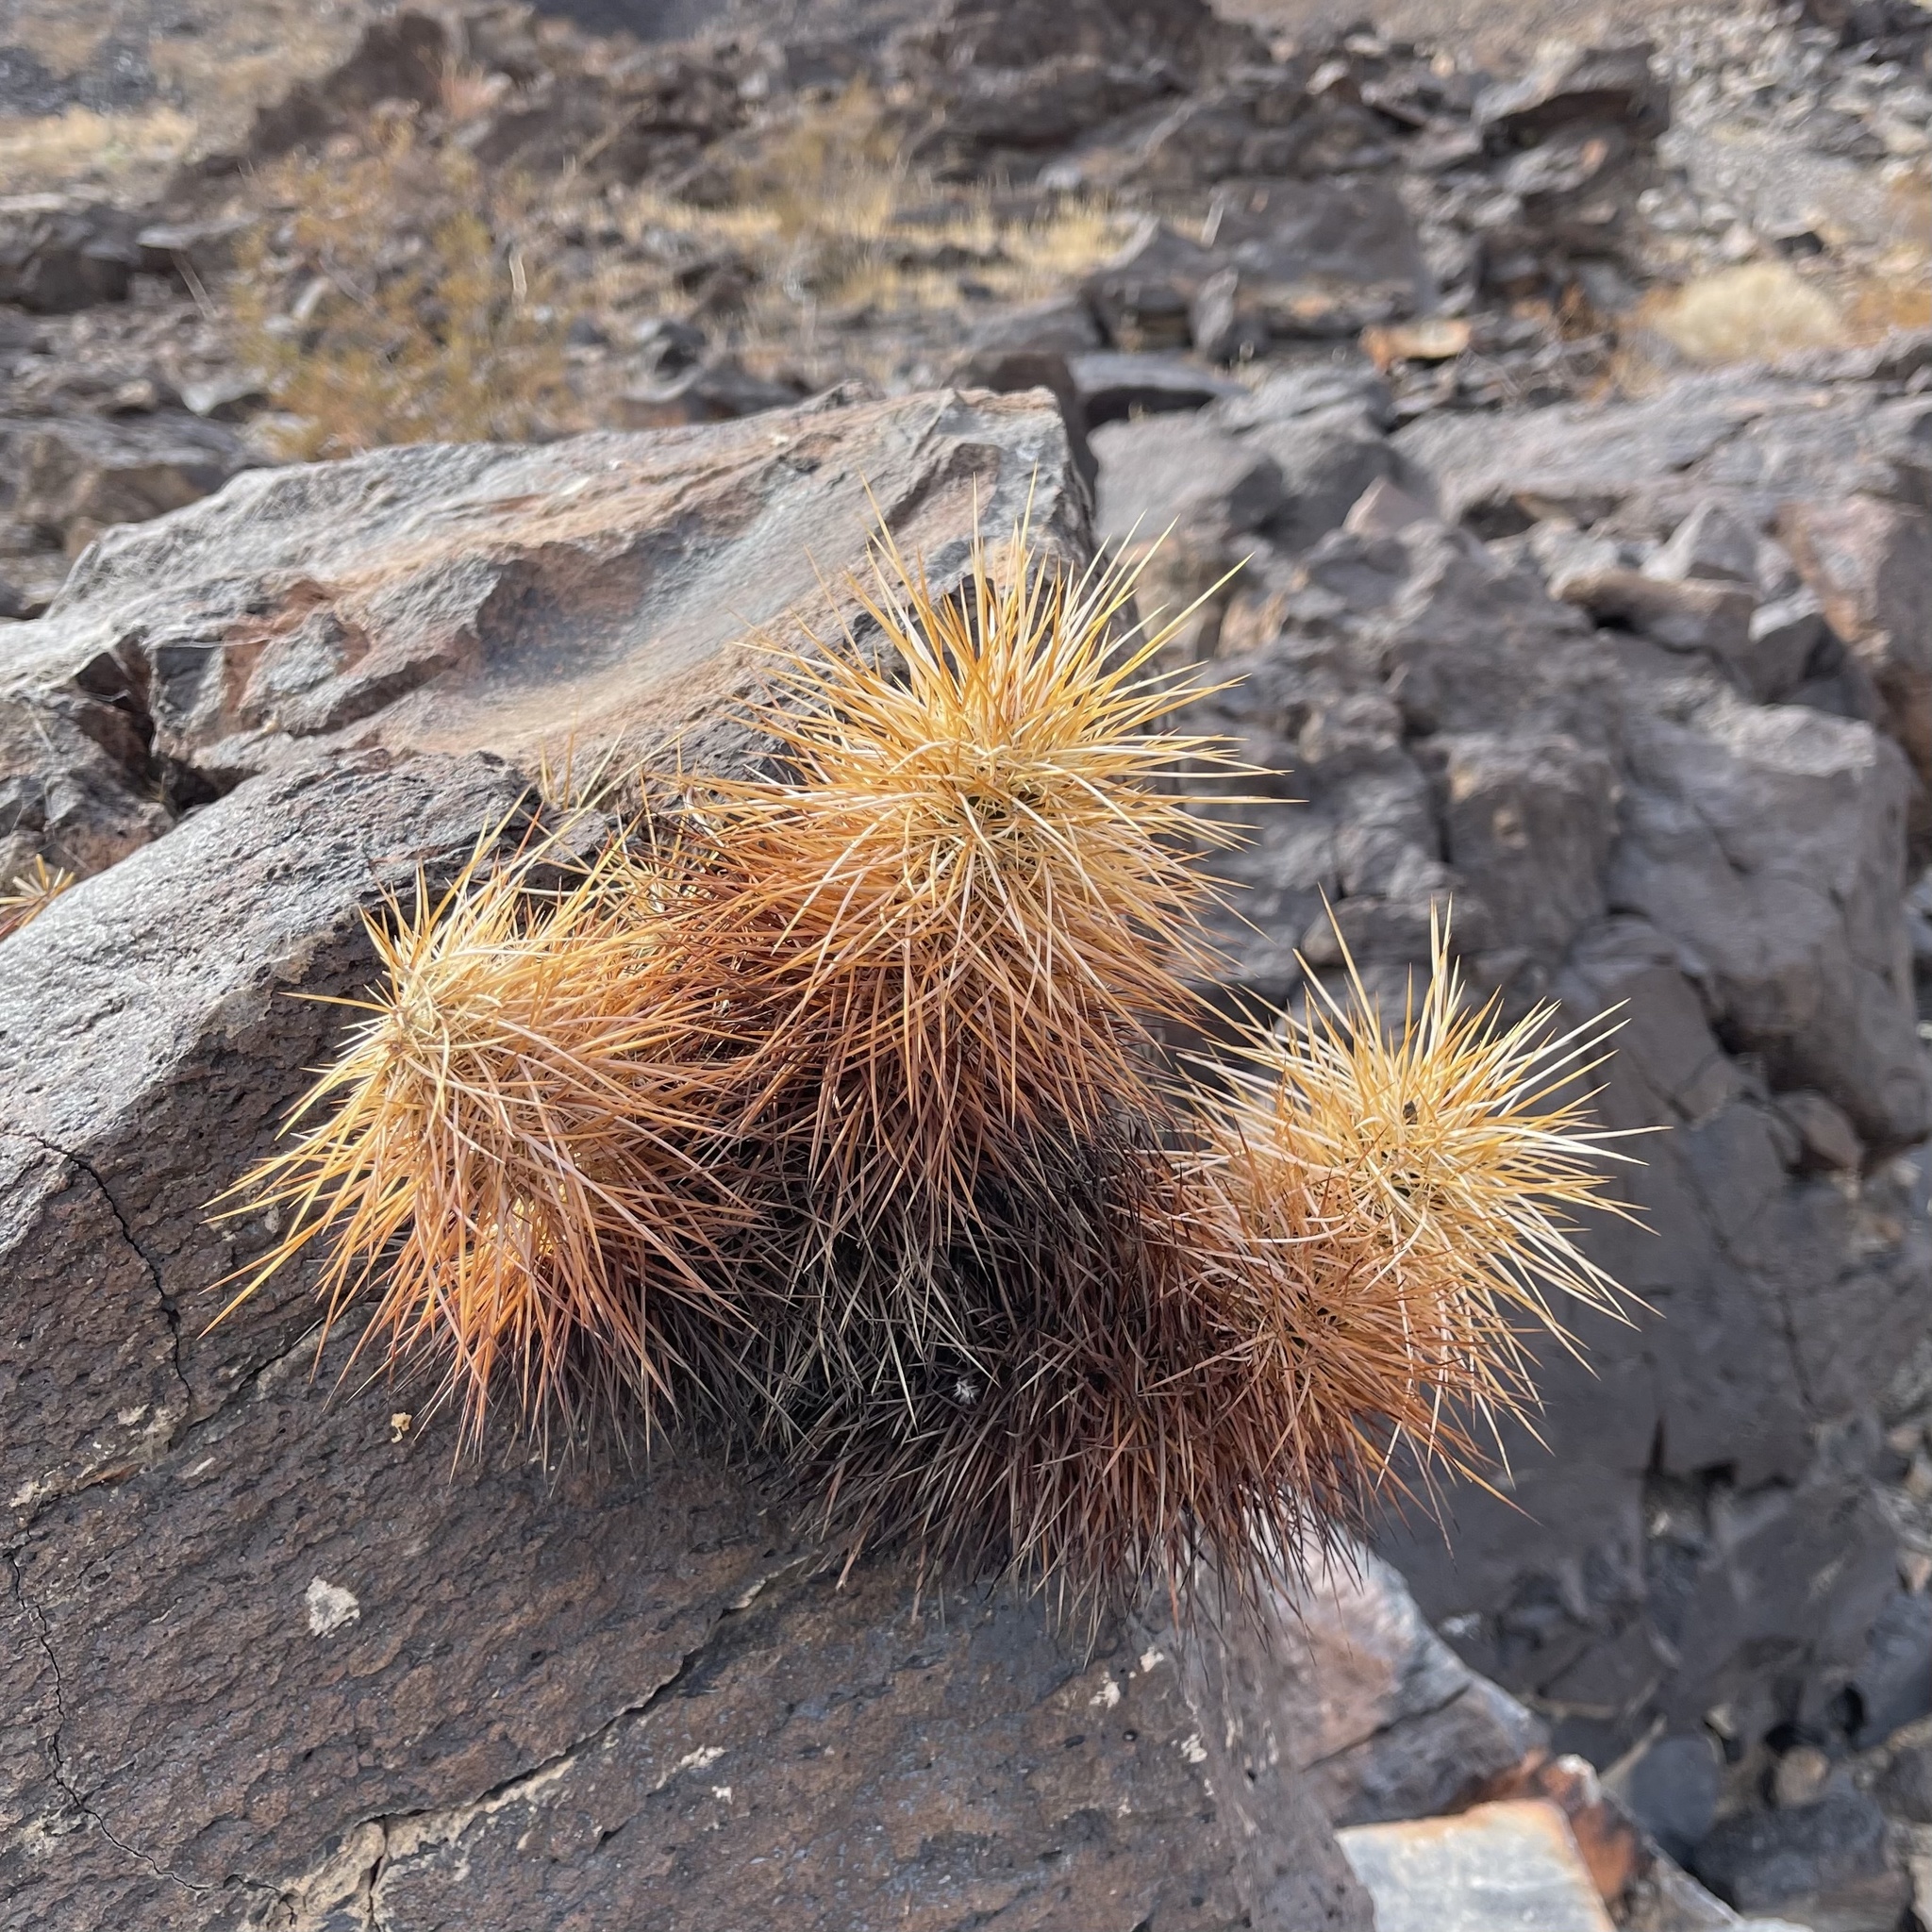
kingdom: Plantae
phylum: Tracheophyta
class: Magnoliopsida
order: Caryophyllales
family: Cactaceae
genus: Echinocereus
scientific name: Echinocereus engelmannii
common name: Engelmann's hedgehog cactus
